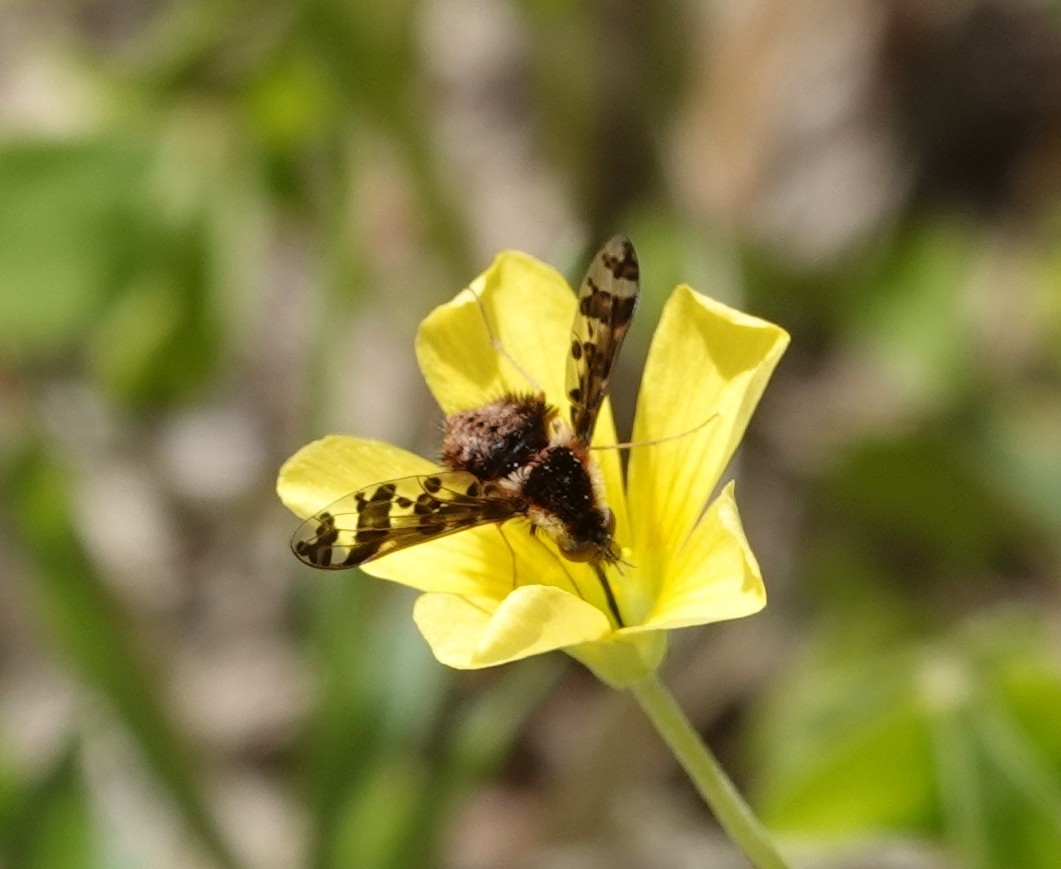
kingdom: Animalia
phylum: Arthropoda
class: Insecta
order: Diptera
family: Bombyliidae
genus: Bombylius
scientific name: Bombylius pulchellus
